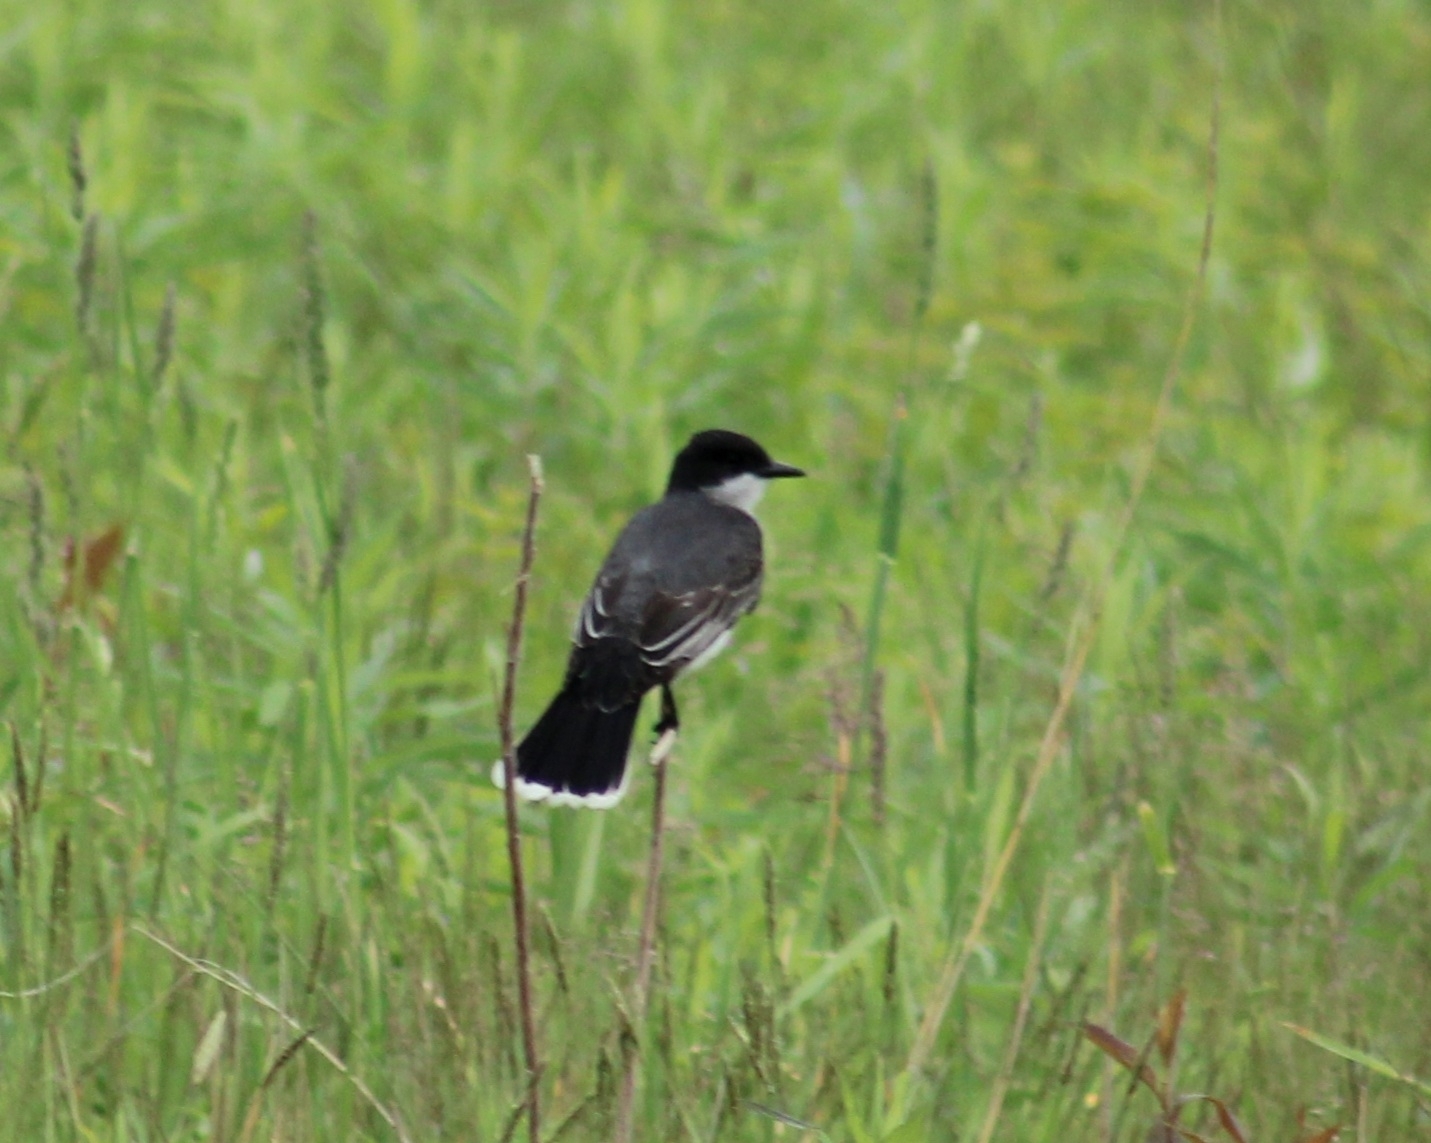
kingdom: Animalia
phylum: Chordata
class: Aves
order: Passeriformes
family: Tyrannidae
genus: Tyrannus
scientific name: Tyrannus tyrannus
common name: Eastern kingbird
